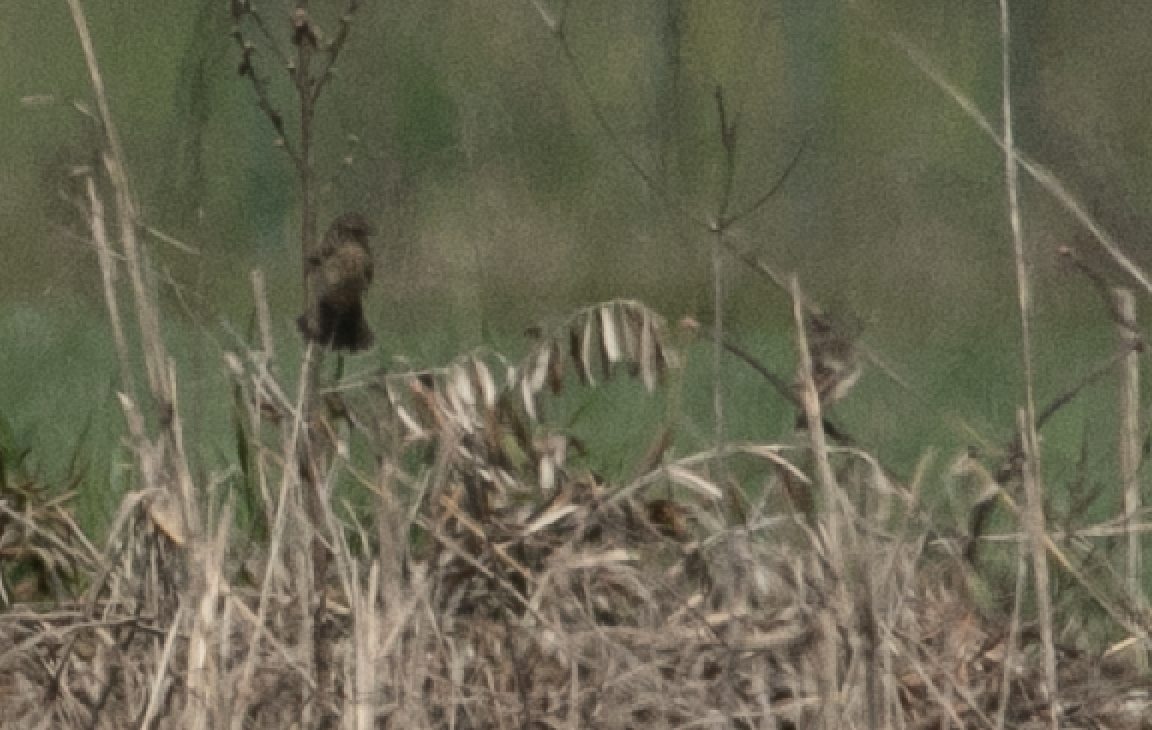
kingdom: Animalia
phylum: Chordata
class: Aves
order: Passeriformes
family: Muscicapidae
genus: Saxicola
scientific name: Saxicola rubicola
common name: European stonechat
